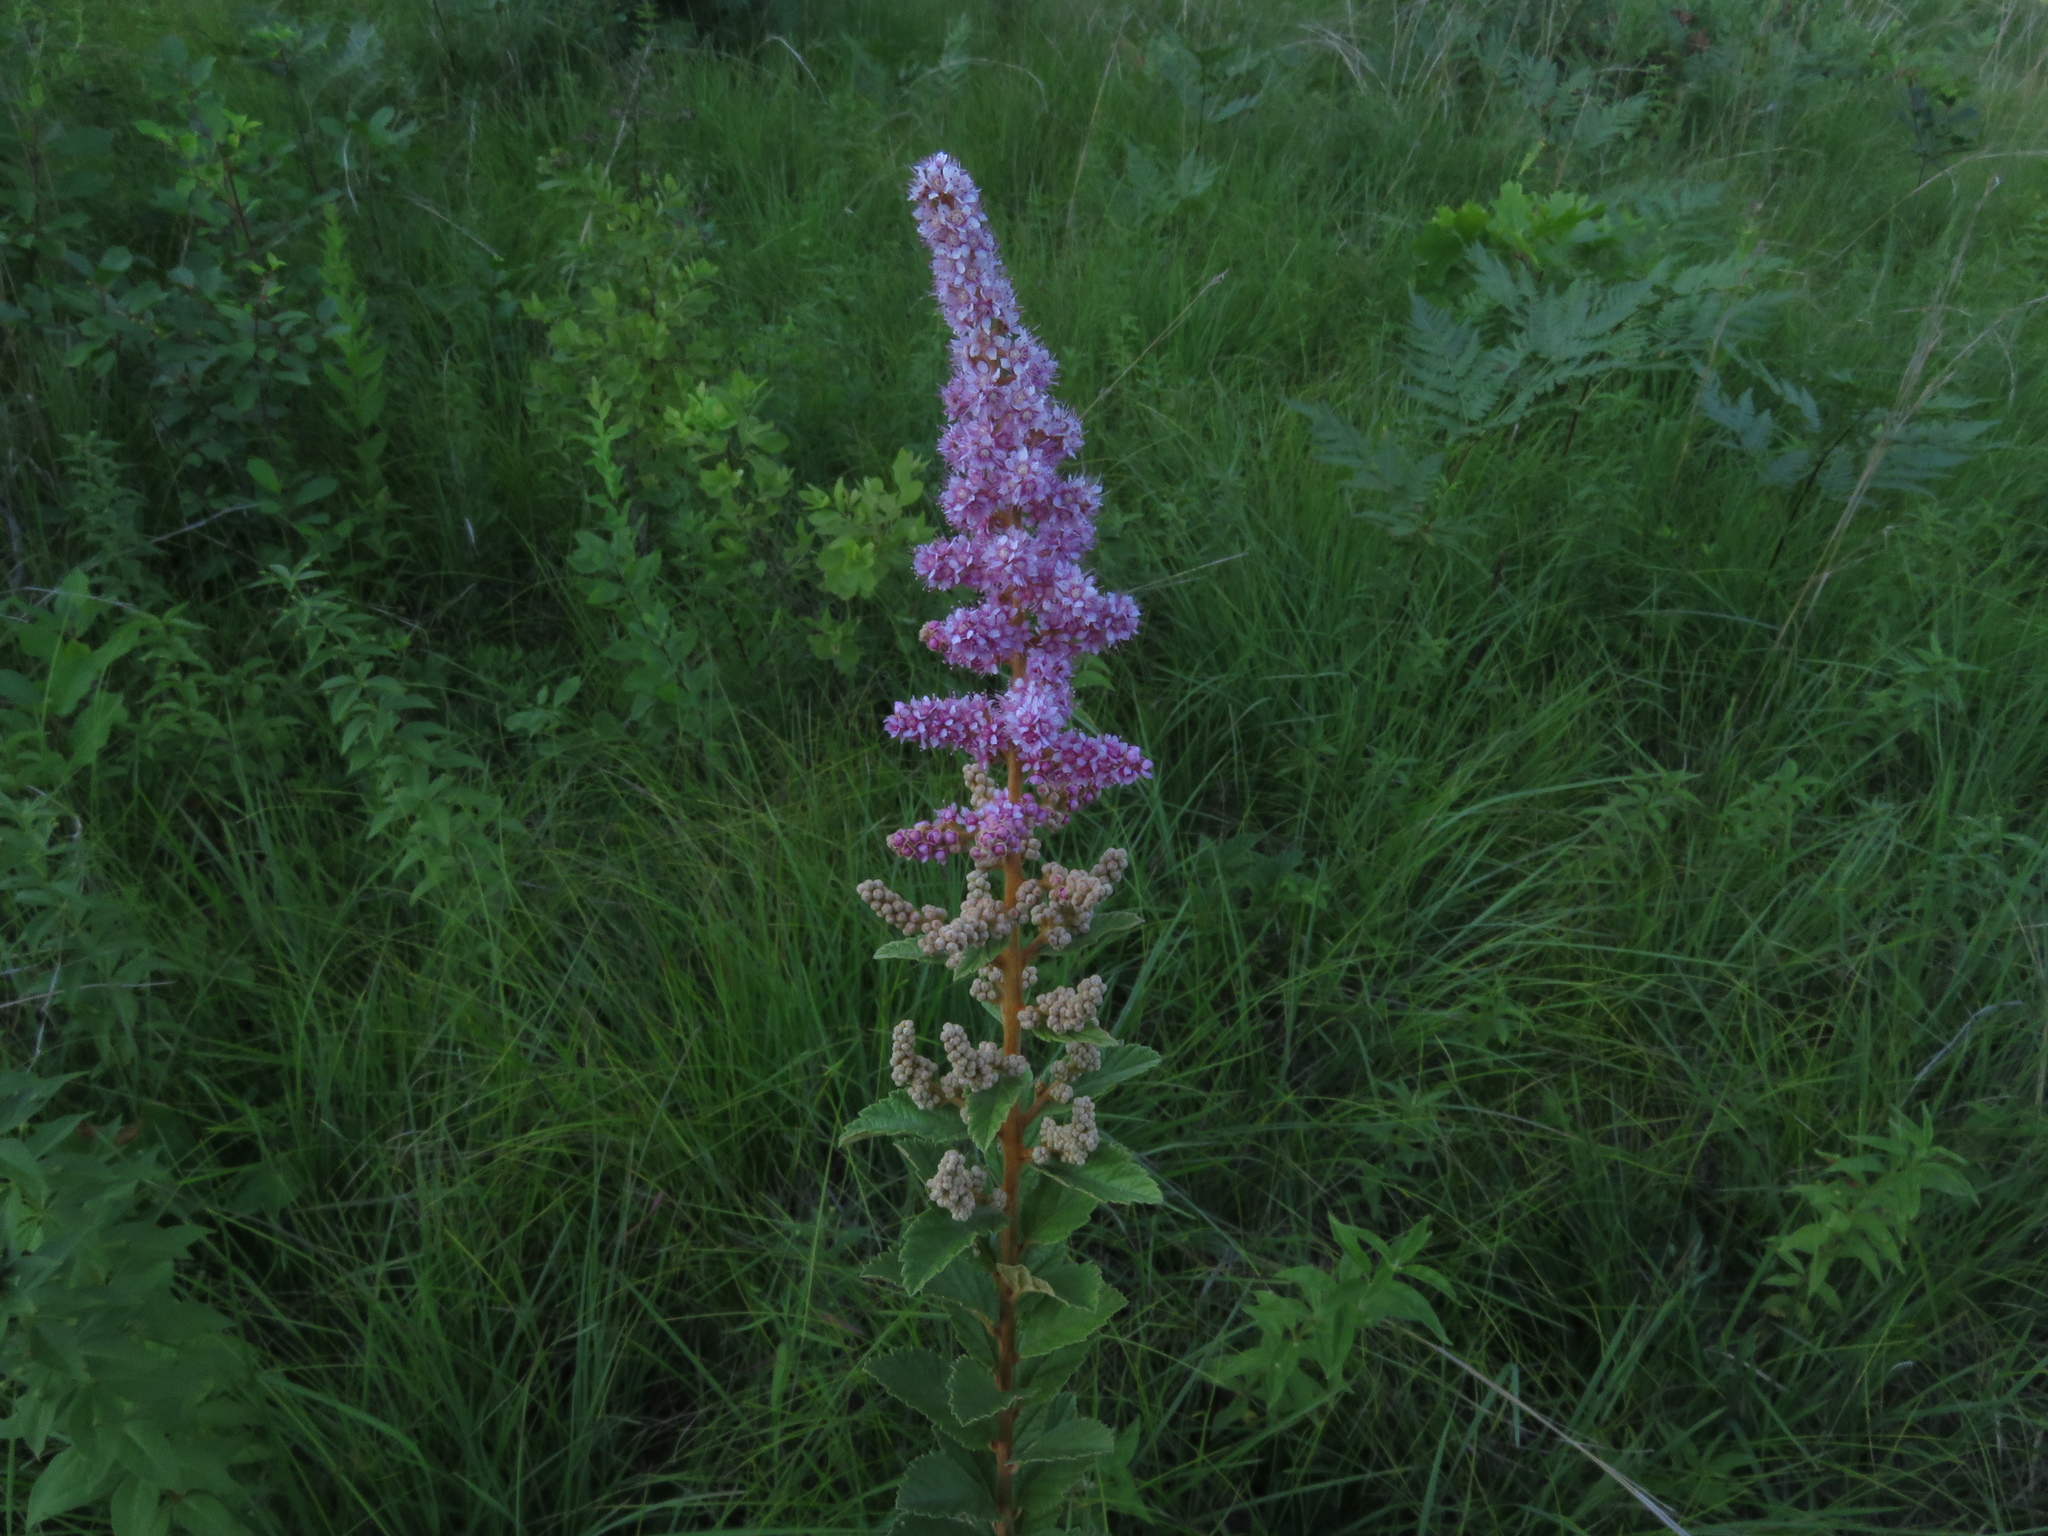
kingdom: Plantae
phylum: Tracheophyta
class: Magnoliopsida
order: Rosales
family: Rosaceae
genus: Spiraea
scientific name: Spiraea tomentosa
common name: Hardhack
